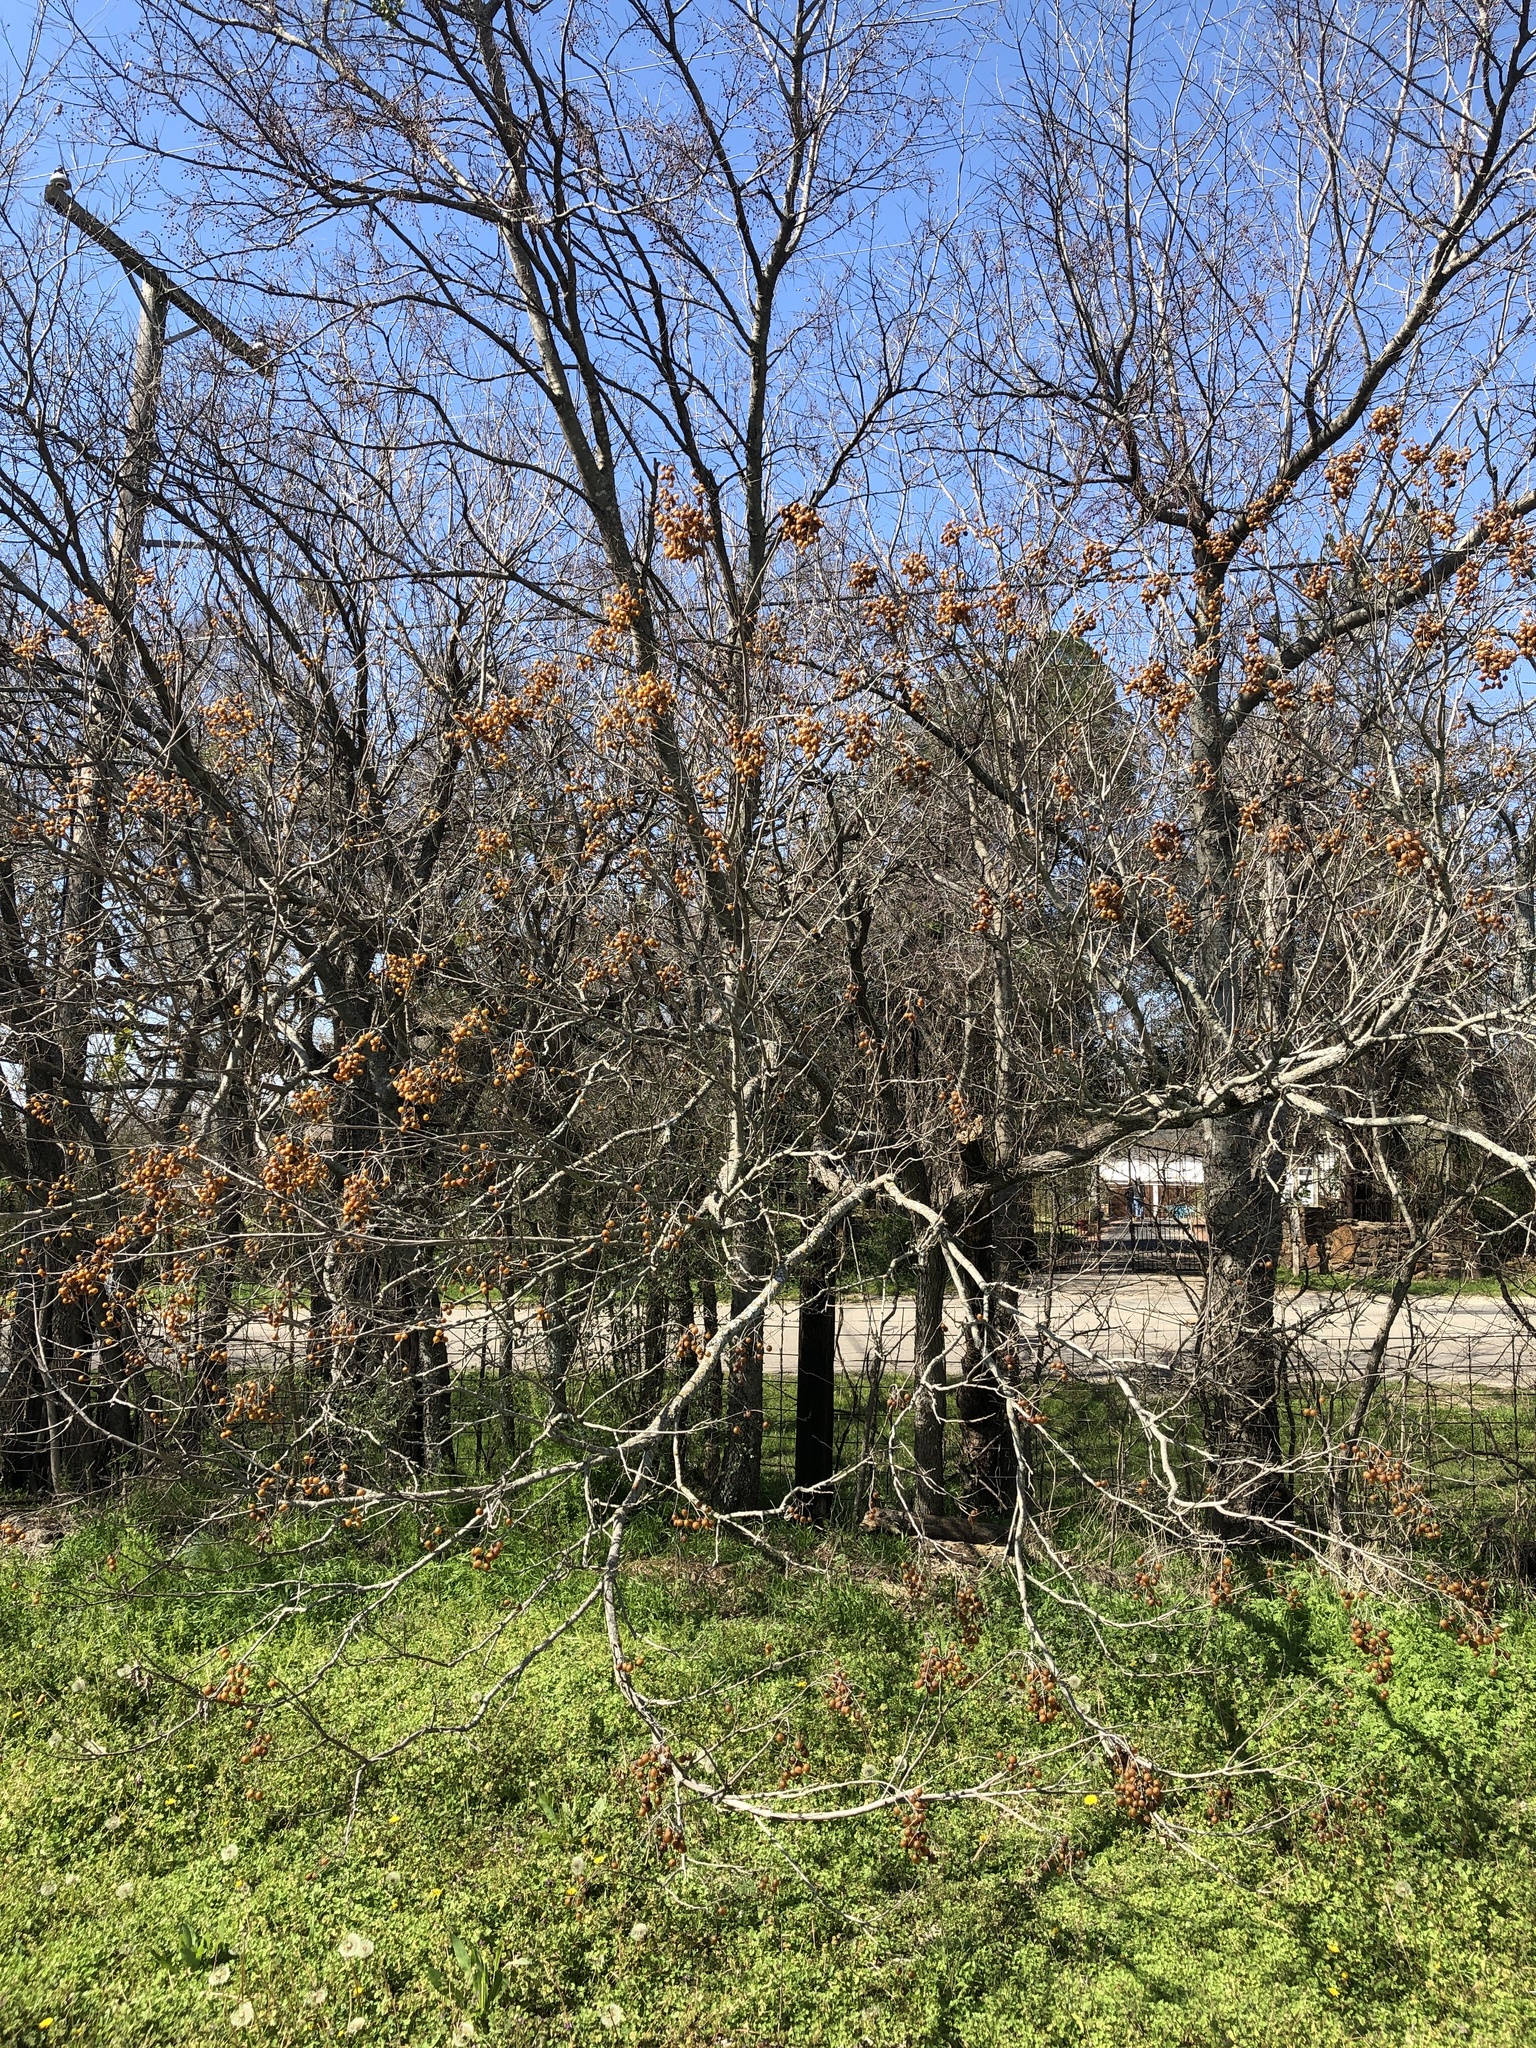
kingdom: Plantae
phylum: Tracheophyta
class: Magnoliopsida
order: Sapindales
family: Sapindaceae
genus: Sapindus
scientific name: Sapindus drummondii
